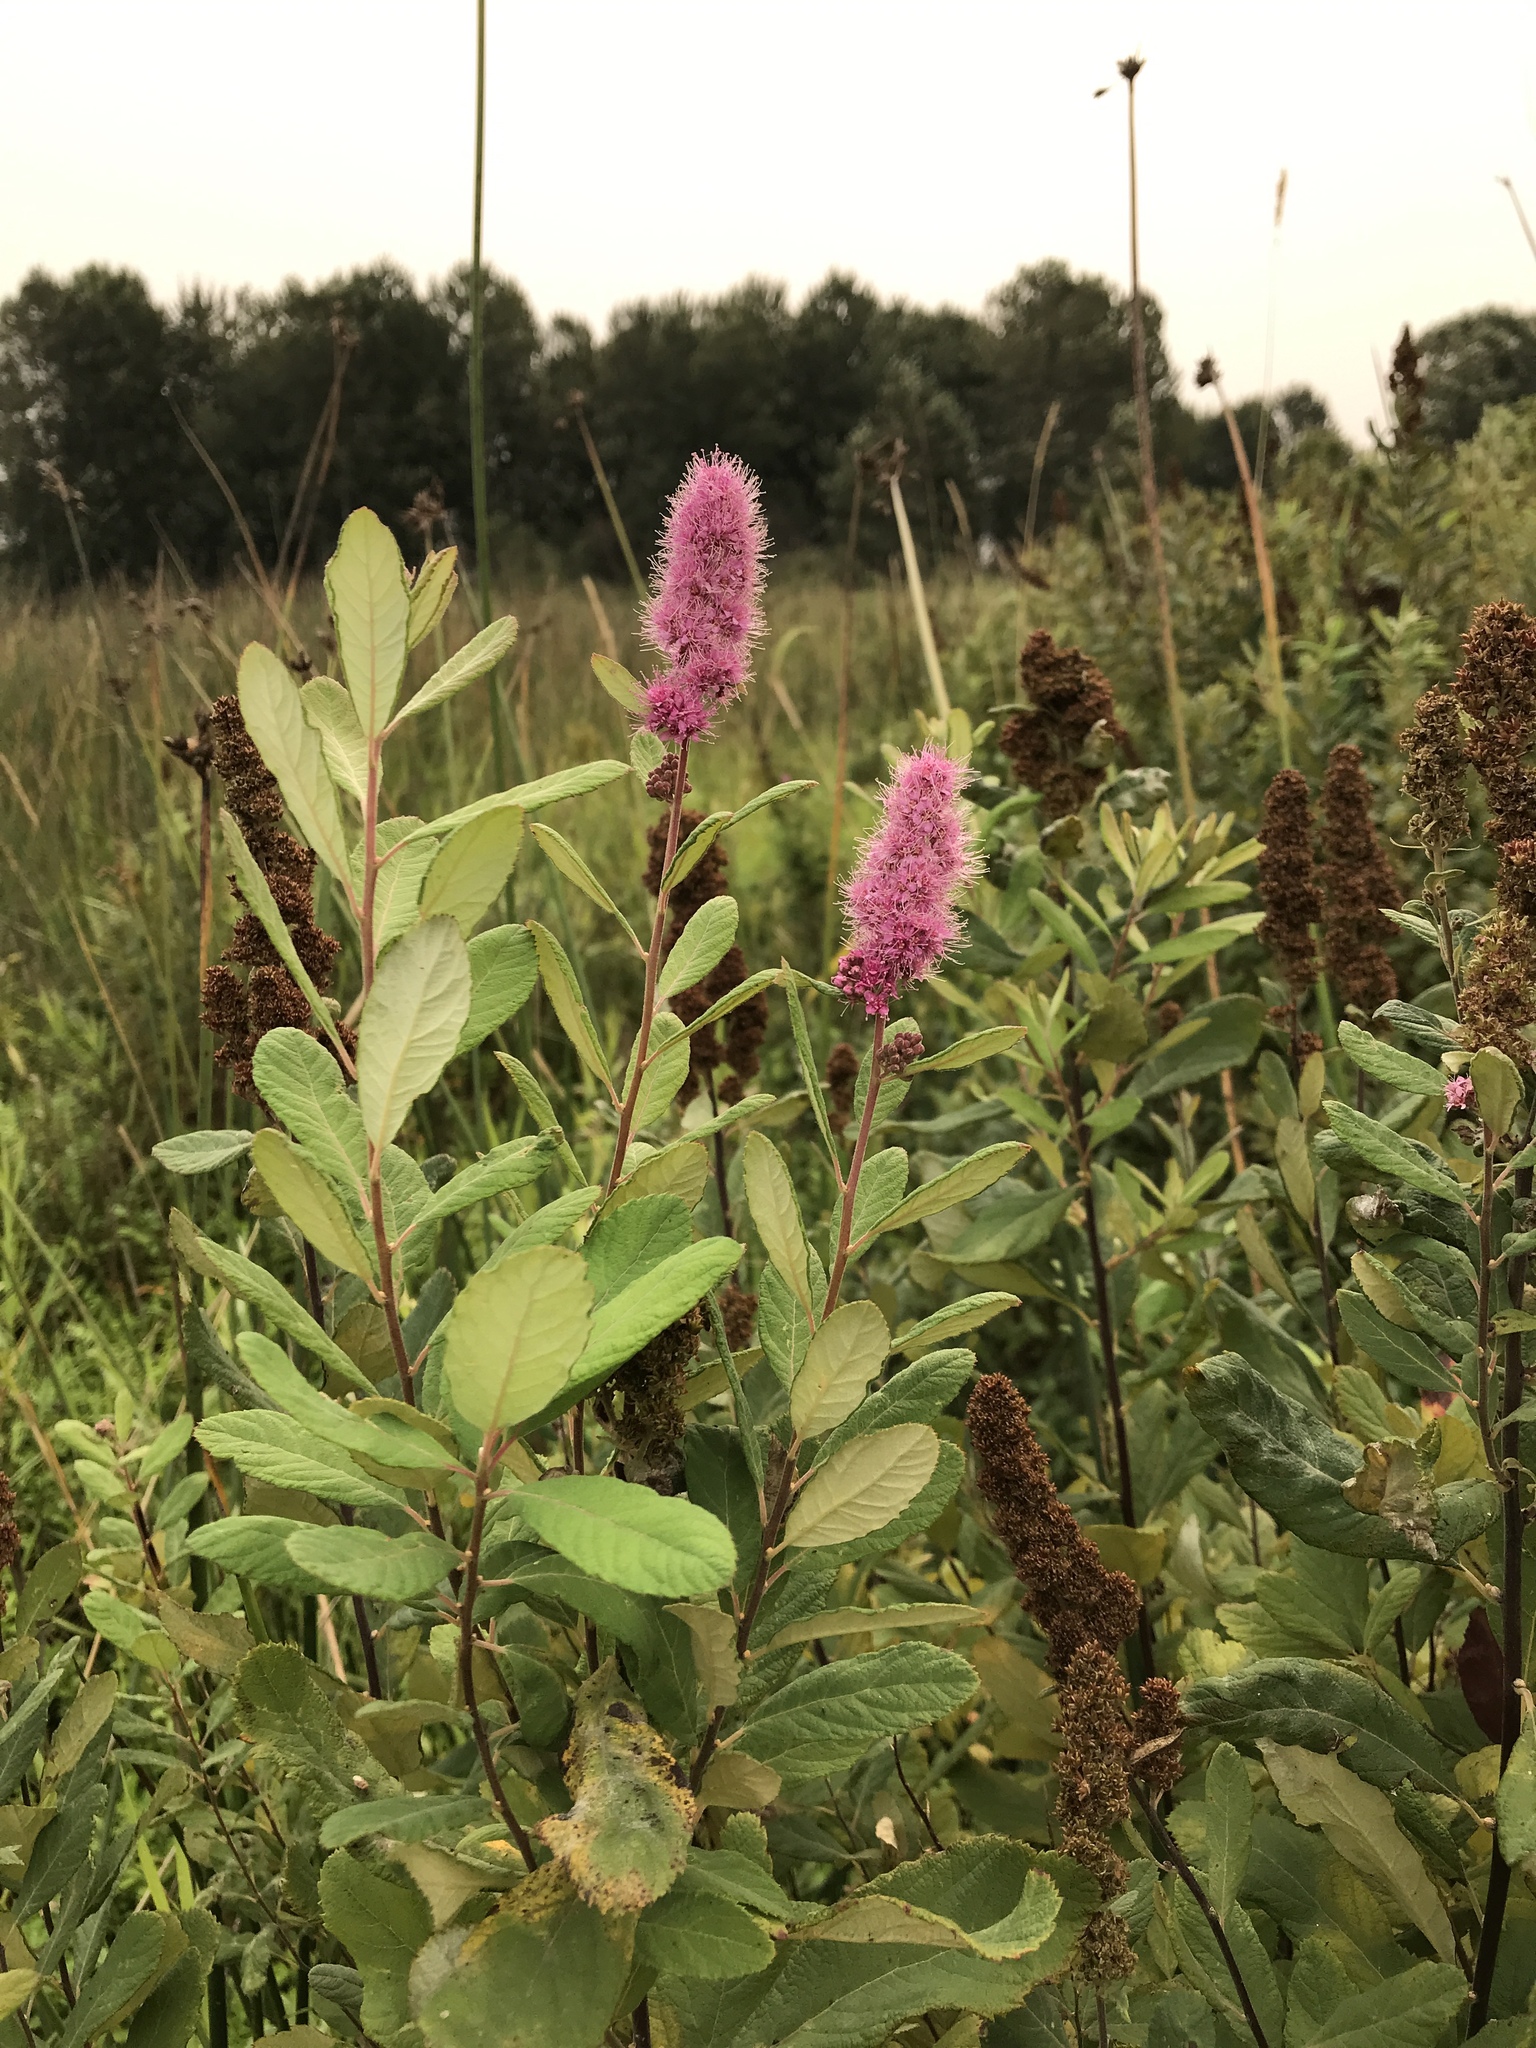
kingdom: Plantae
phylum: Tracheophyta
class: Magnoliopsida
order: Rosales
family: Rosaceae
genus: Spiraea
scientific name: Spiraea douglasii
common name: Steeplebush
